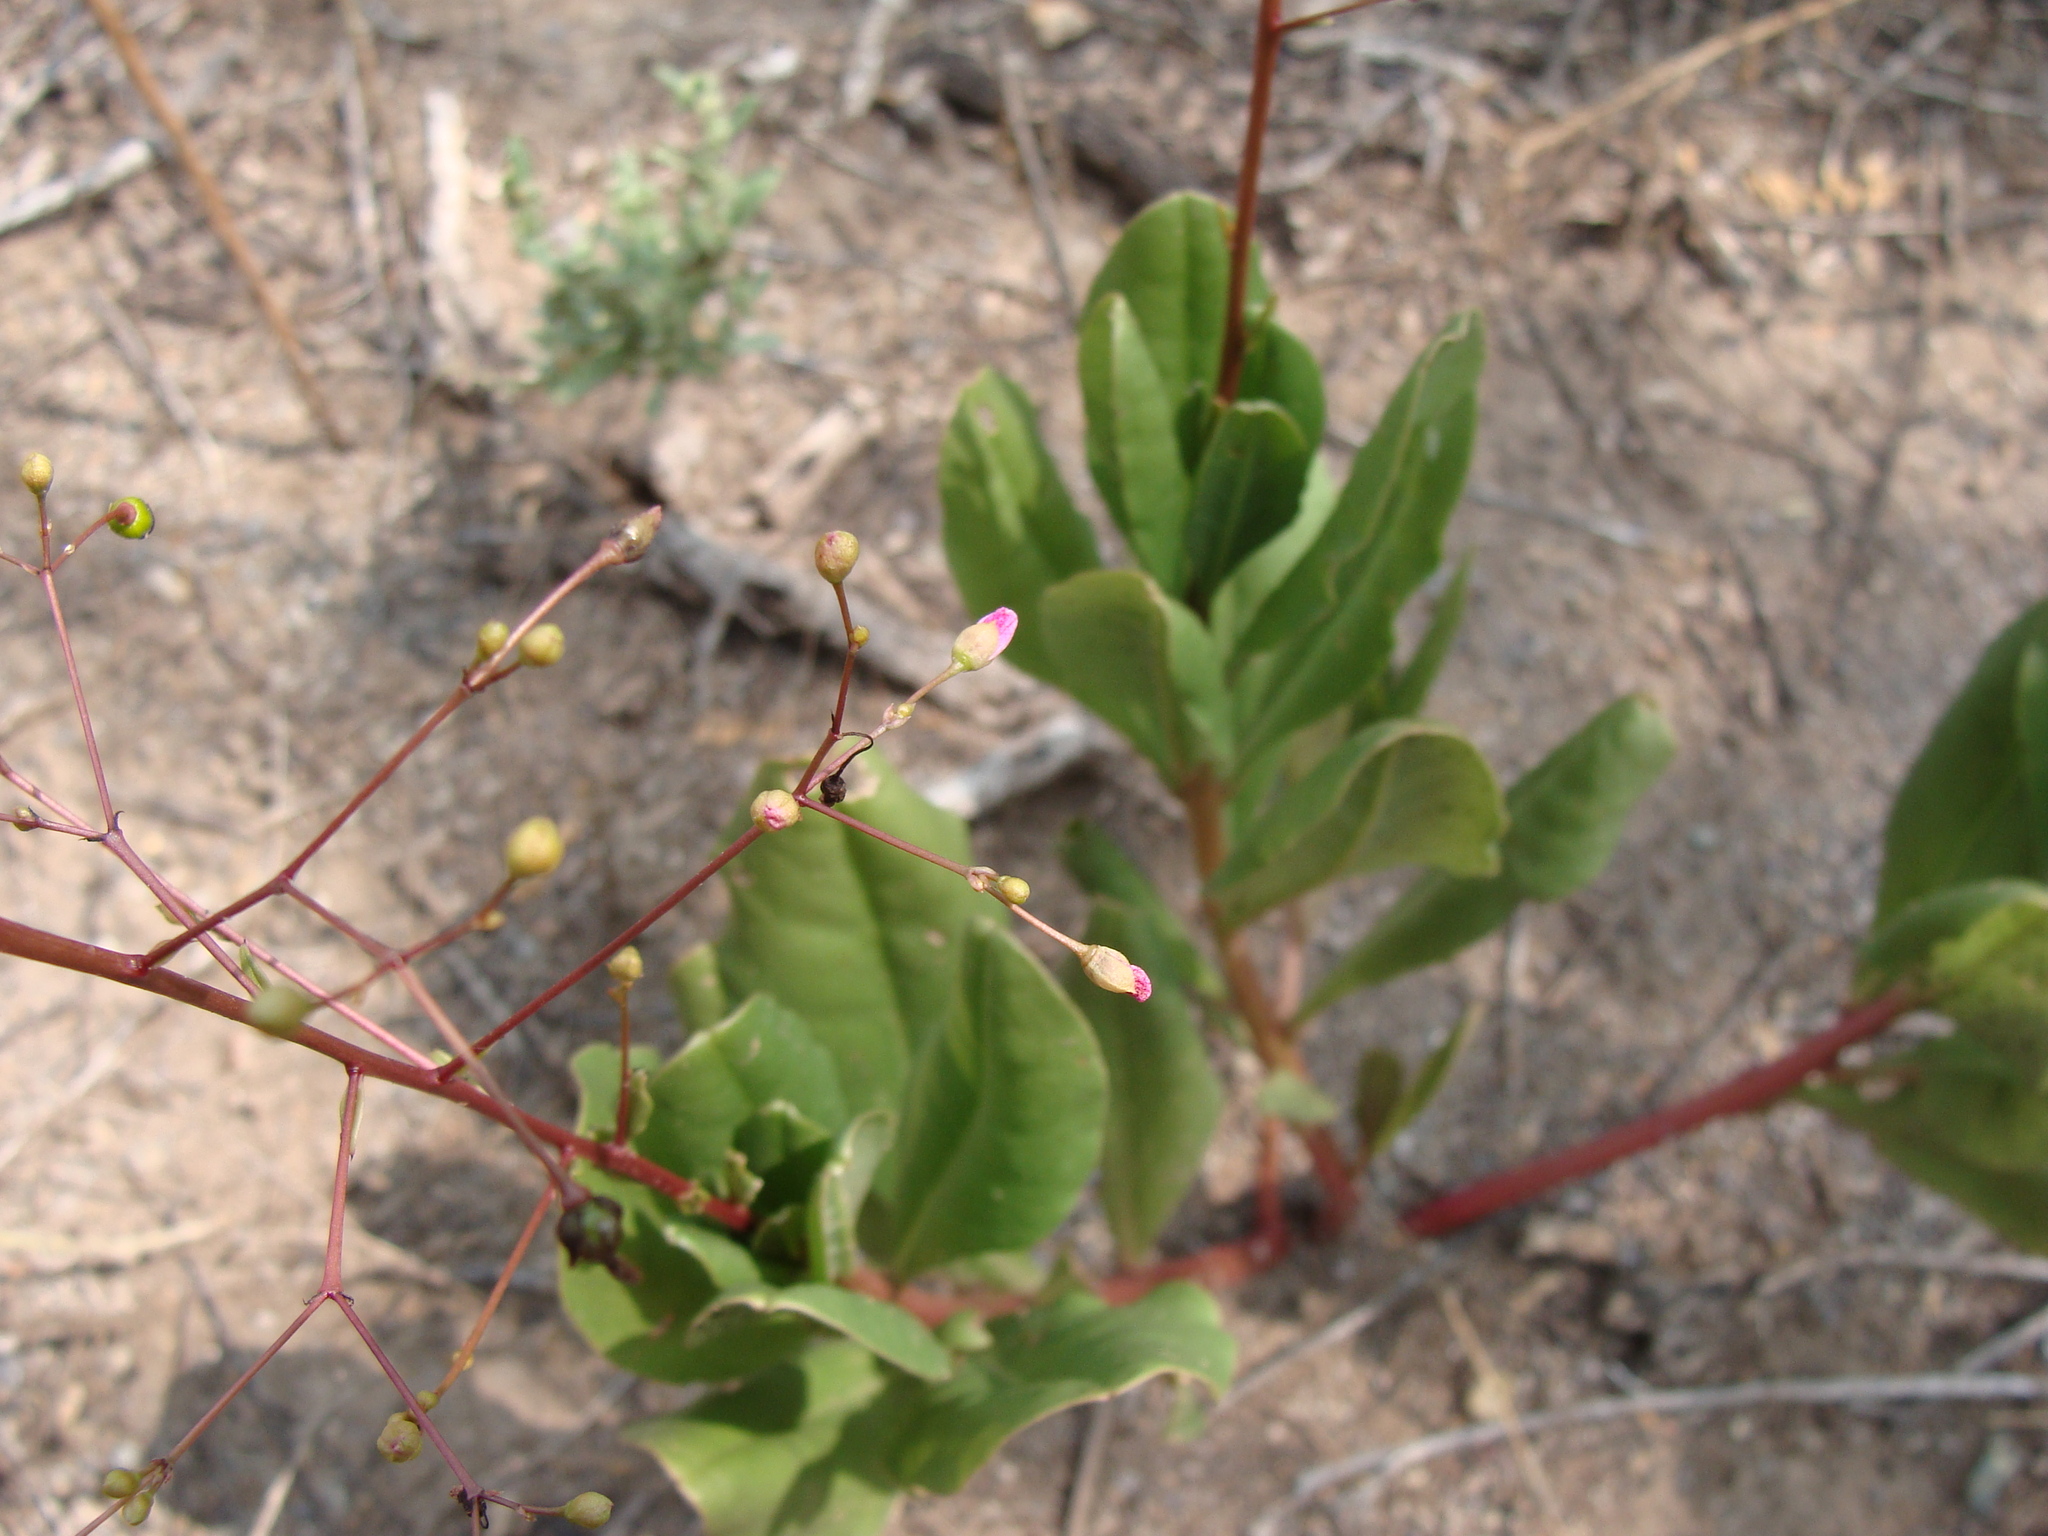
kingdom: Plantae
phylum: Tracheophyta
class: Magnoliopsida
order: Caryophyllales
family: Talinaceae
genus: Talinum
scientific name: Talinum paniculatum
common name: Jewels of opar
